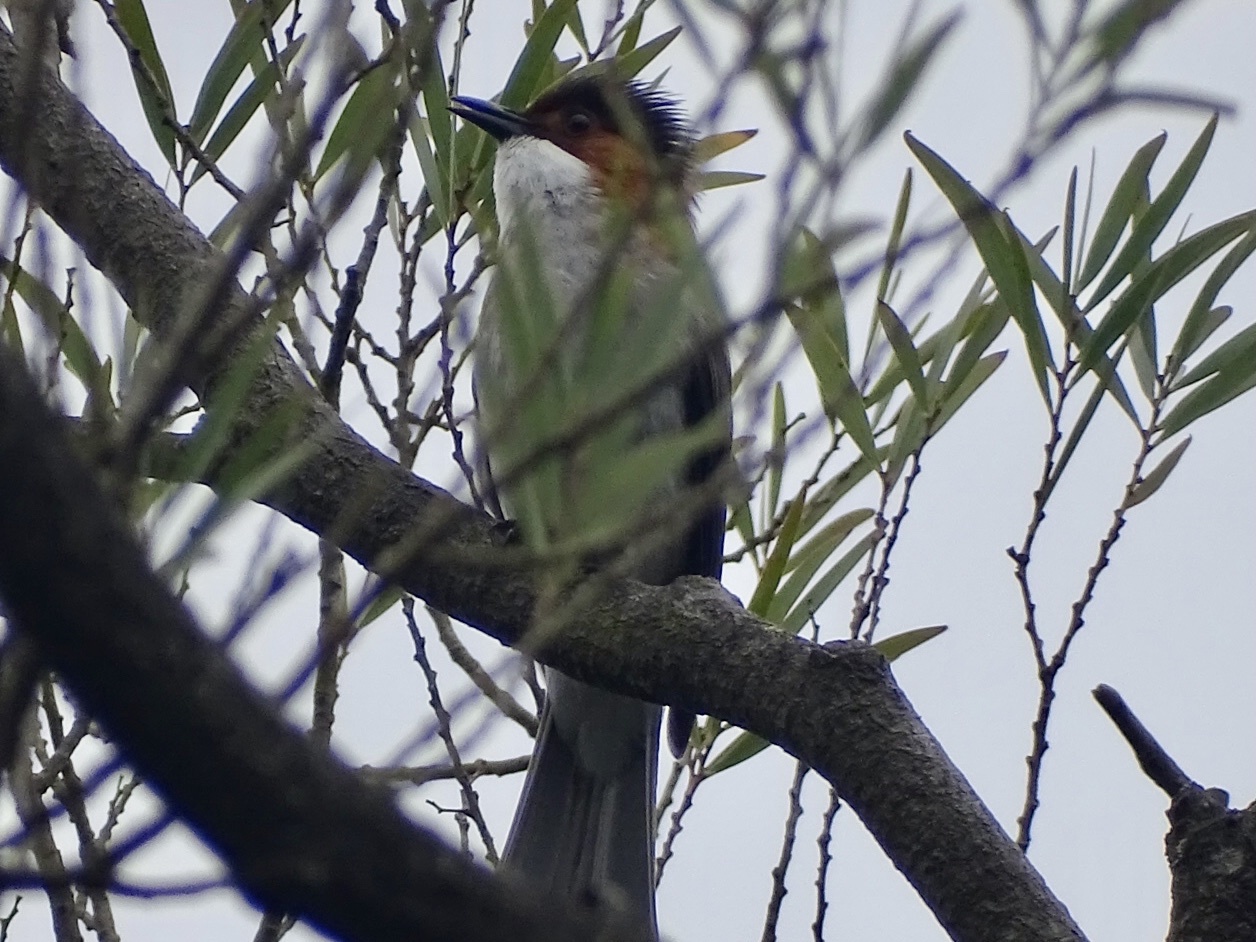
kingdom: Animalia
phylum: Chordata
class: Aves
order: Passeriformes
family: Pycnonotidae
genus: Hemixos
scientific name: Hemixos castanonotus
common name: Chestnut bulbul
